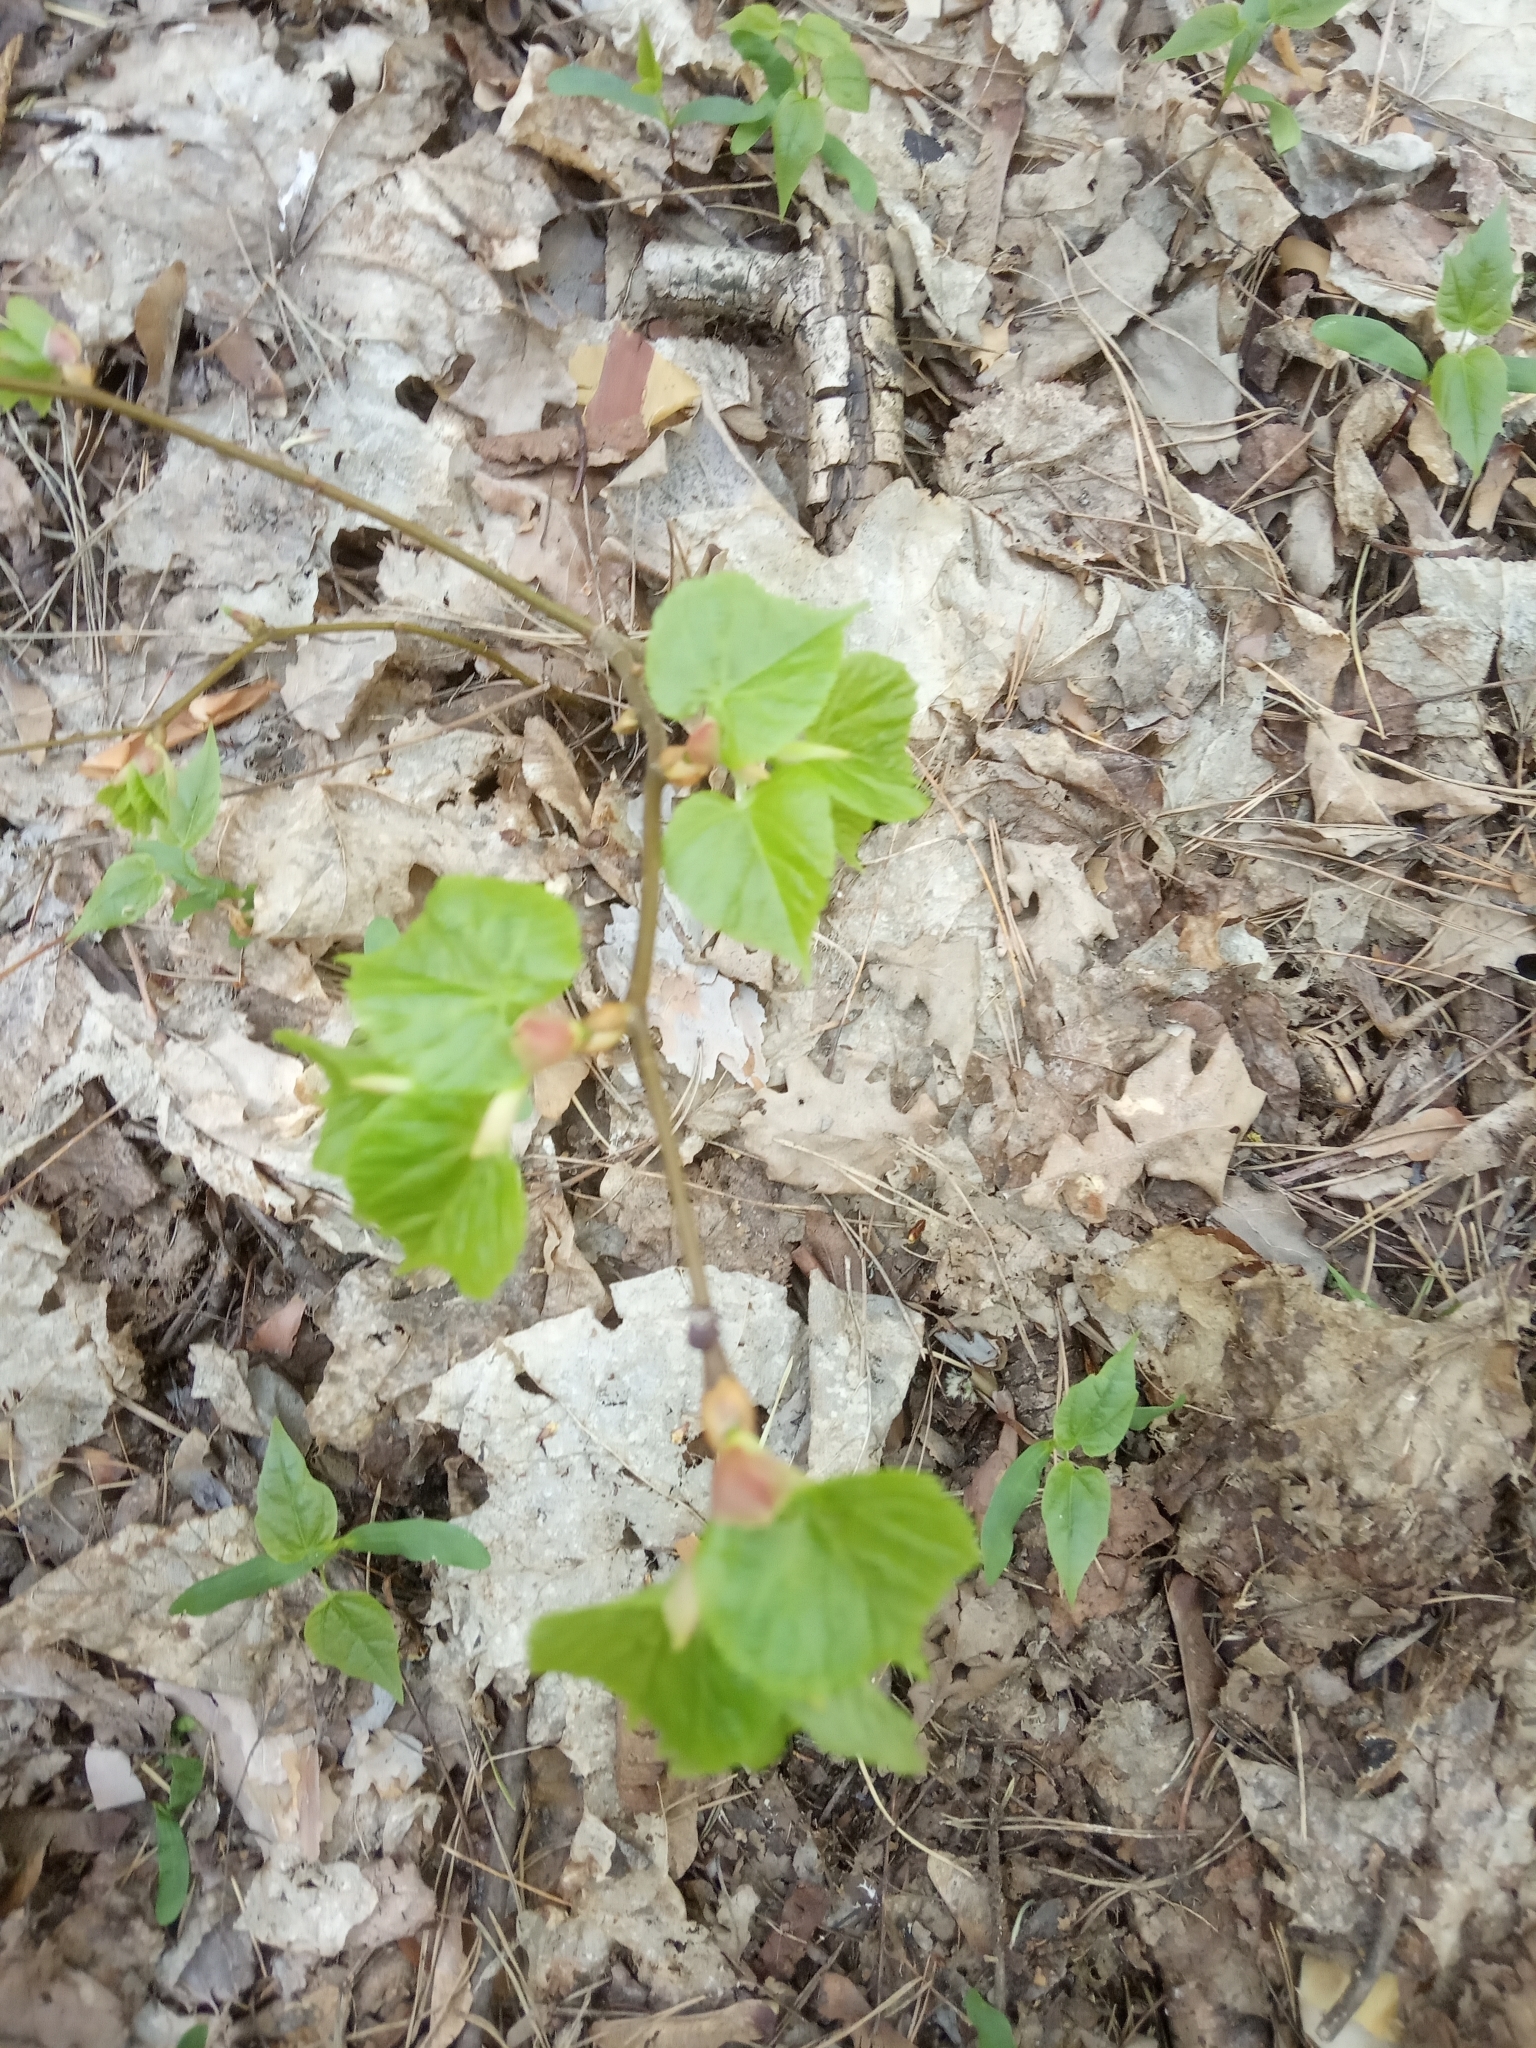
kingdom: Plantae
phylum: Tracheophyta
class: Magnoliopsida
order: Malvales
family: Malvaceae
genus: Tilia
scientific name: Tilia cordata
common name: Small-leaved lime
